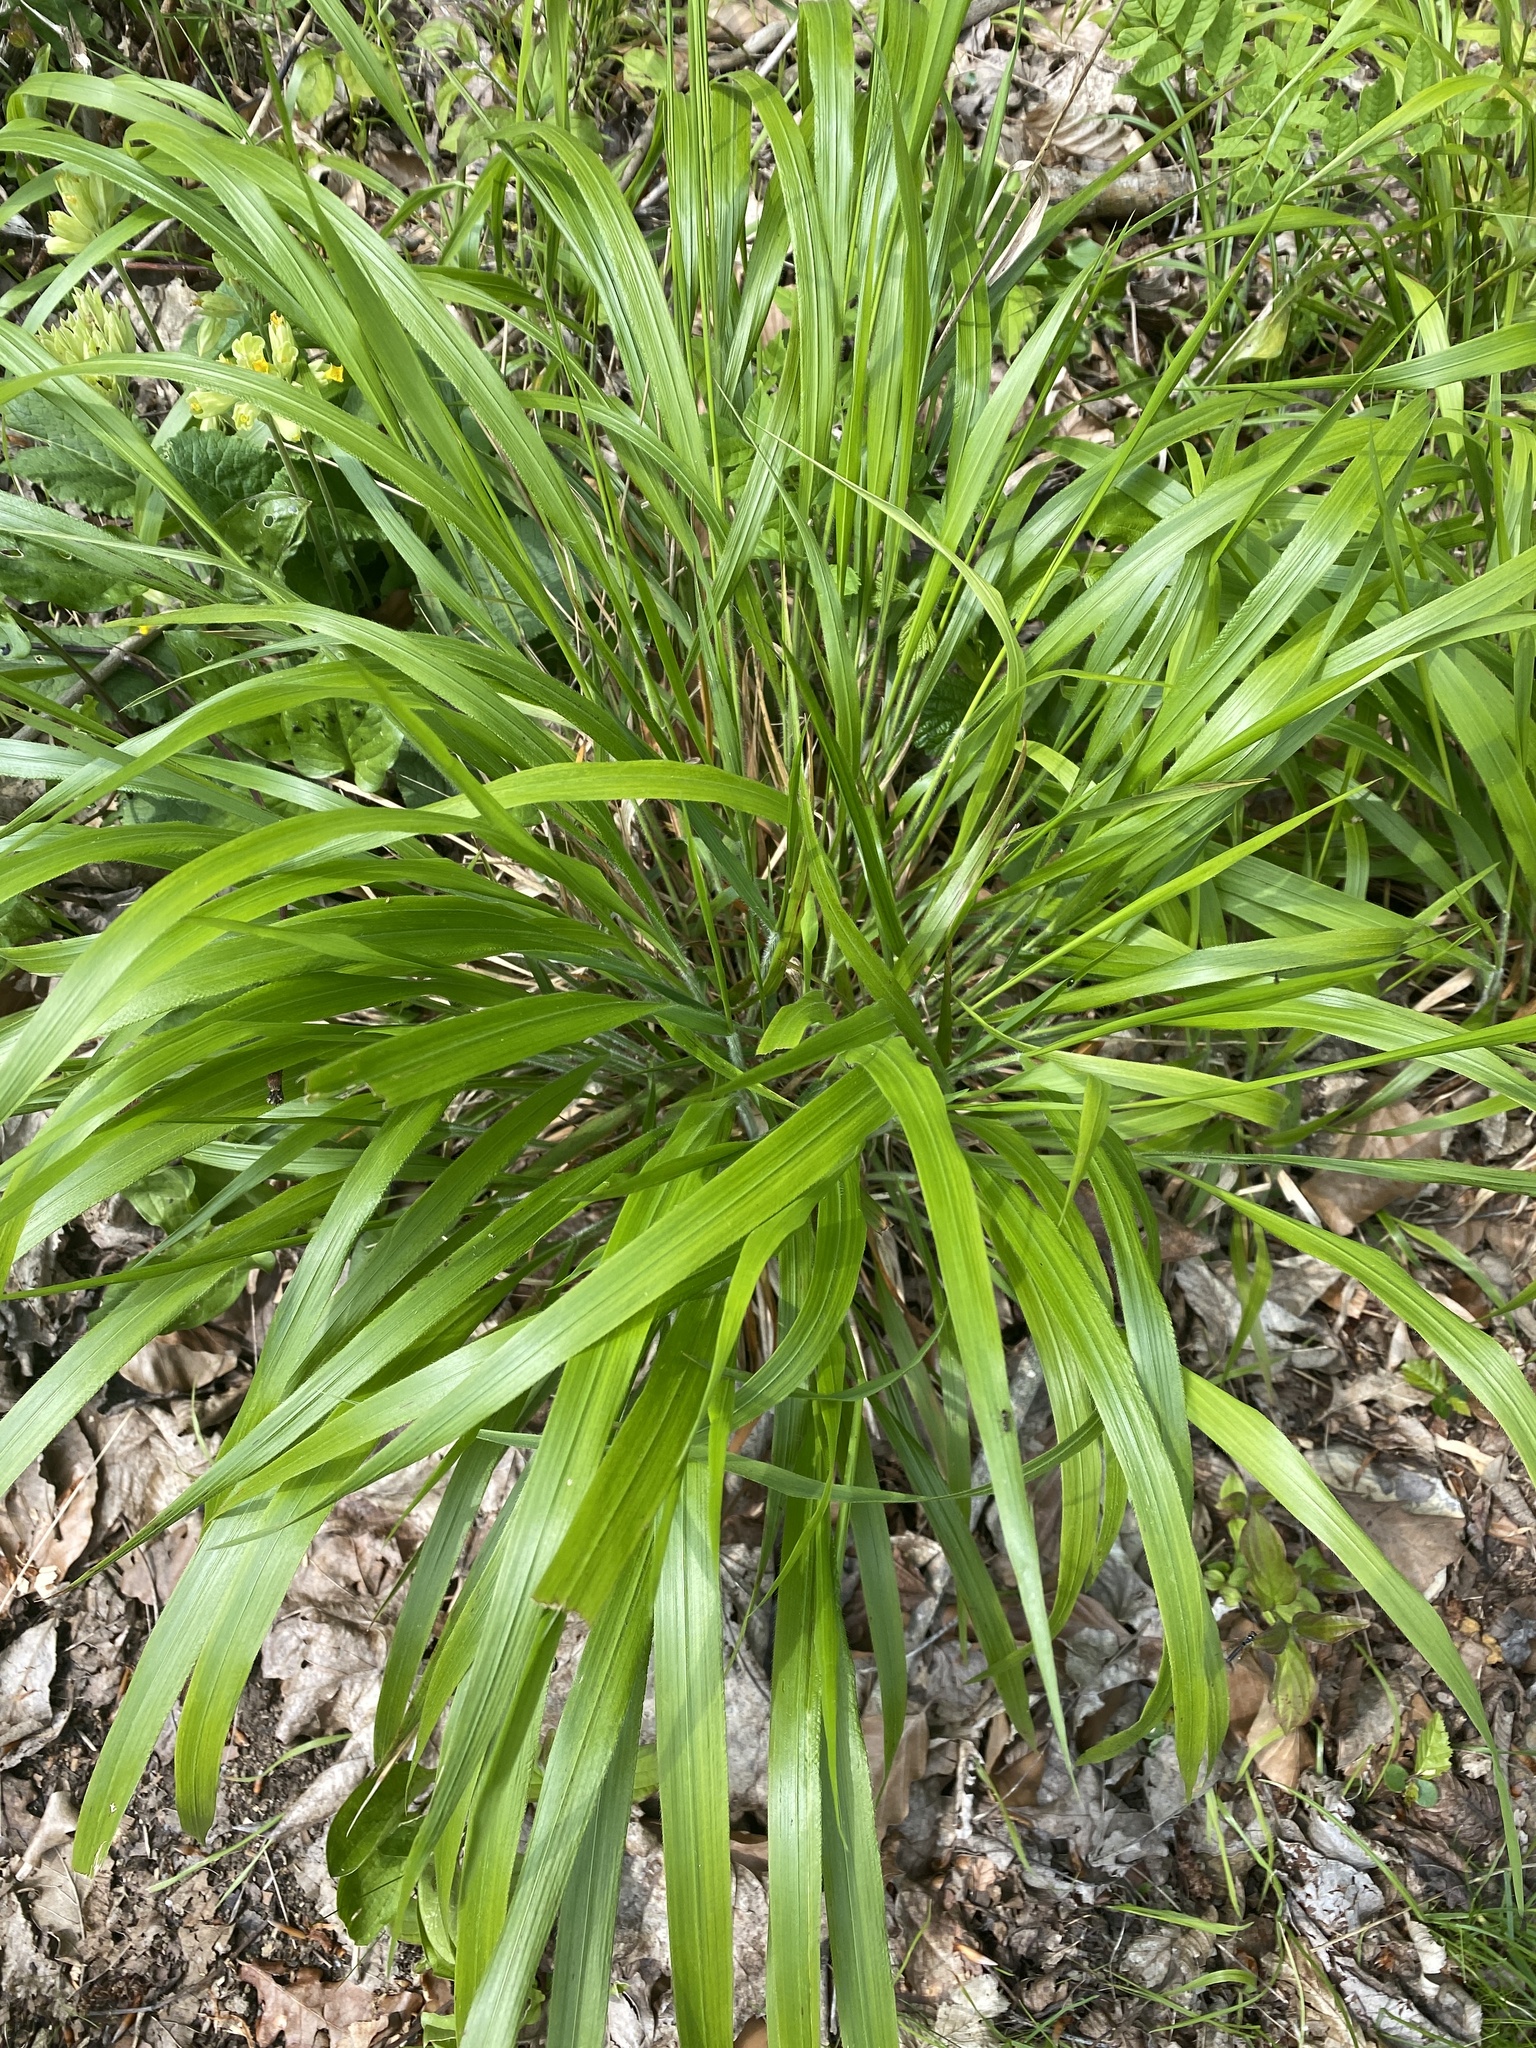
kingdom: Plantae
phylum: Tracheophyta
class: Liliopsida
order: Poales
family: Poaceae
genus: Brachypodium
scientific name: Brachypodium sylvaticum
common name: False-brome
